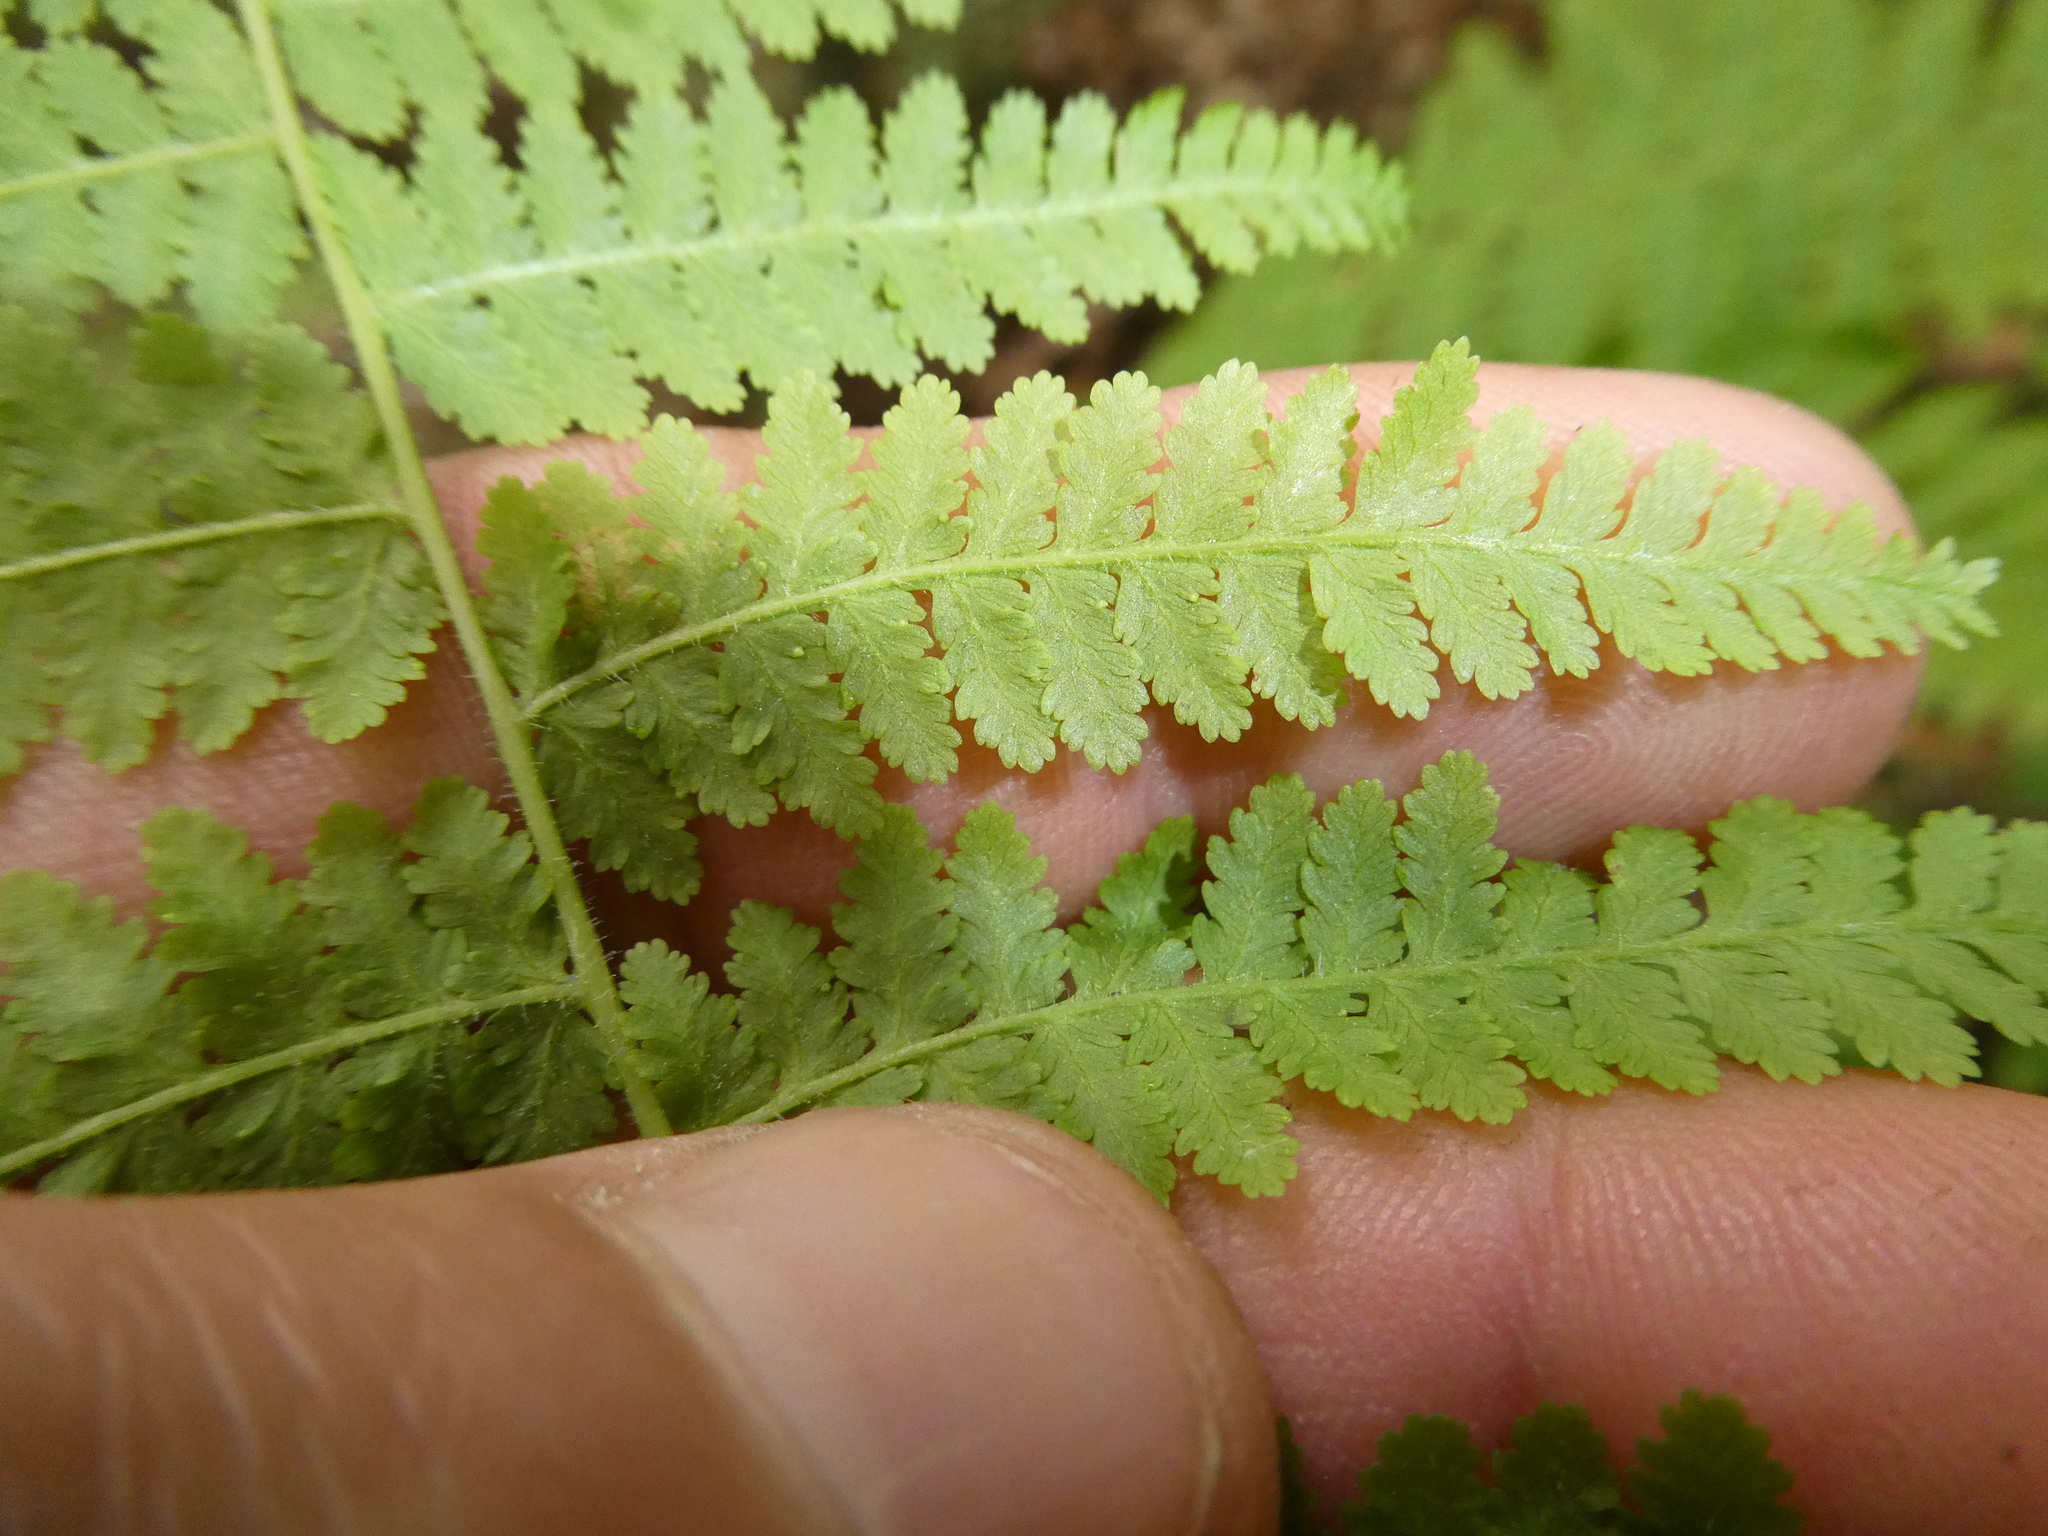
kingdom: Plantae
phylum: Tracheophyta
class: Polypodiopsida
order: Polypodiales
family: Dennstaedtiaceae
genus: Sitobolium
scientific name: Sitobolium punctilobum
